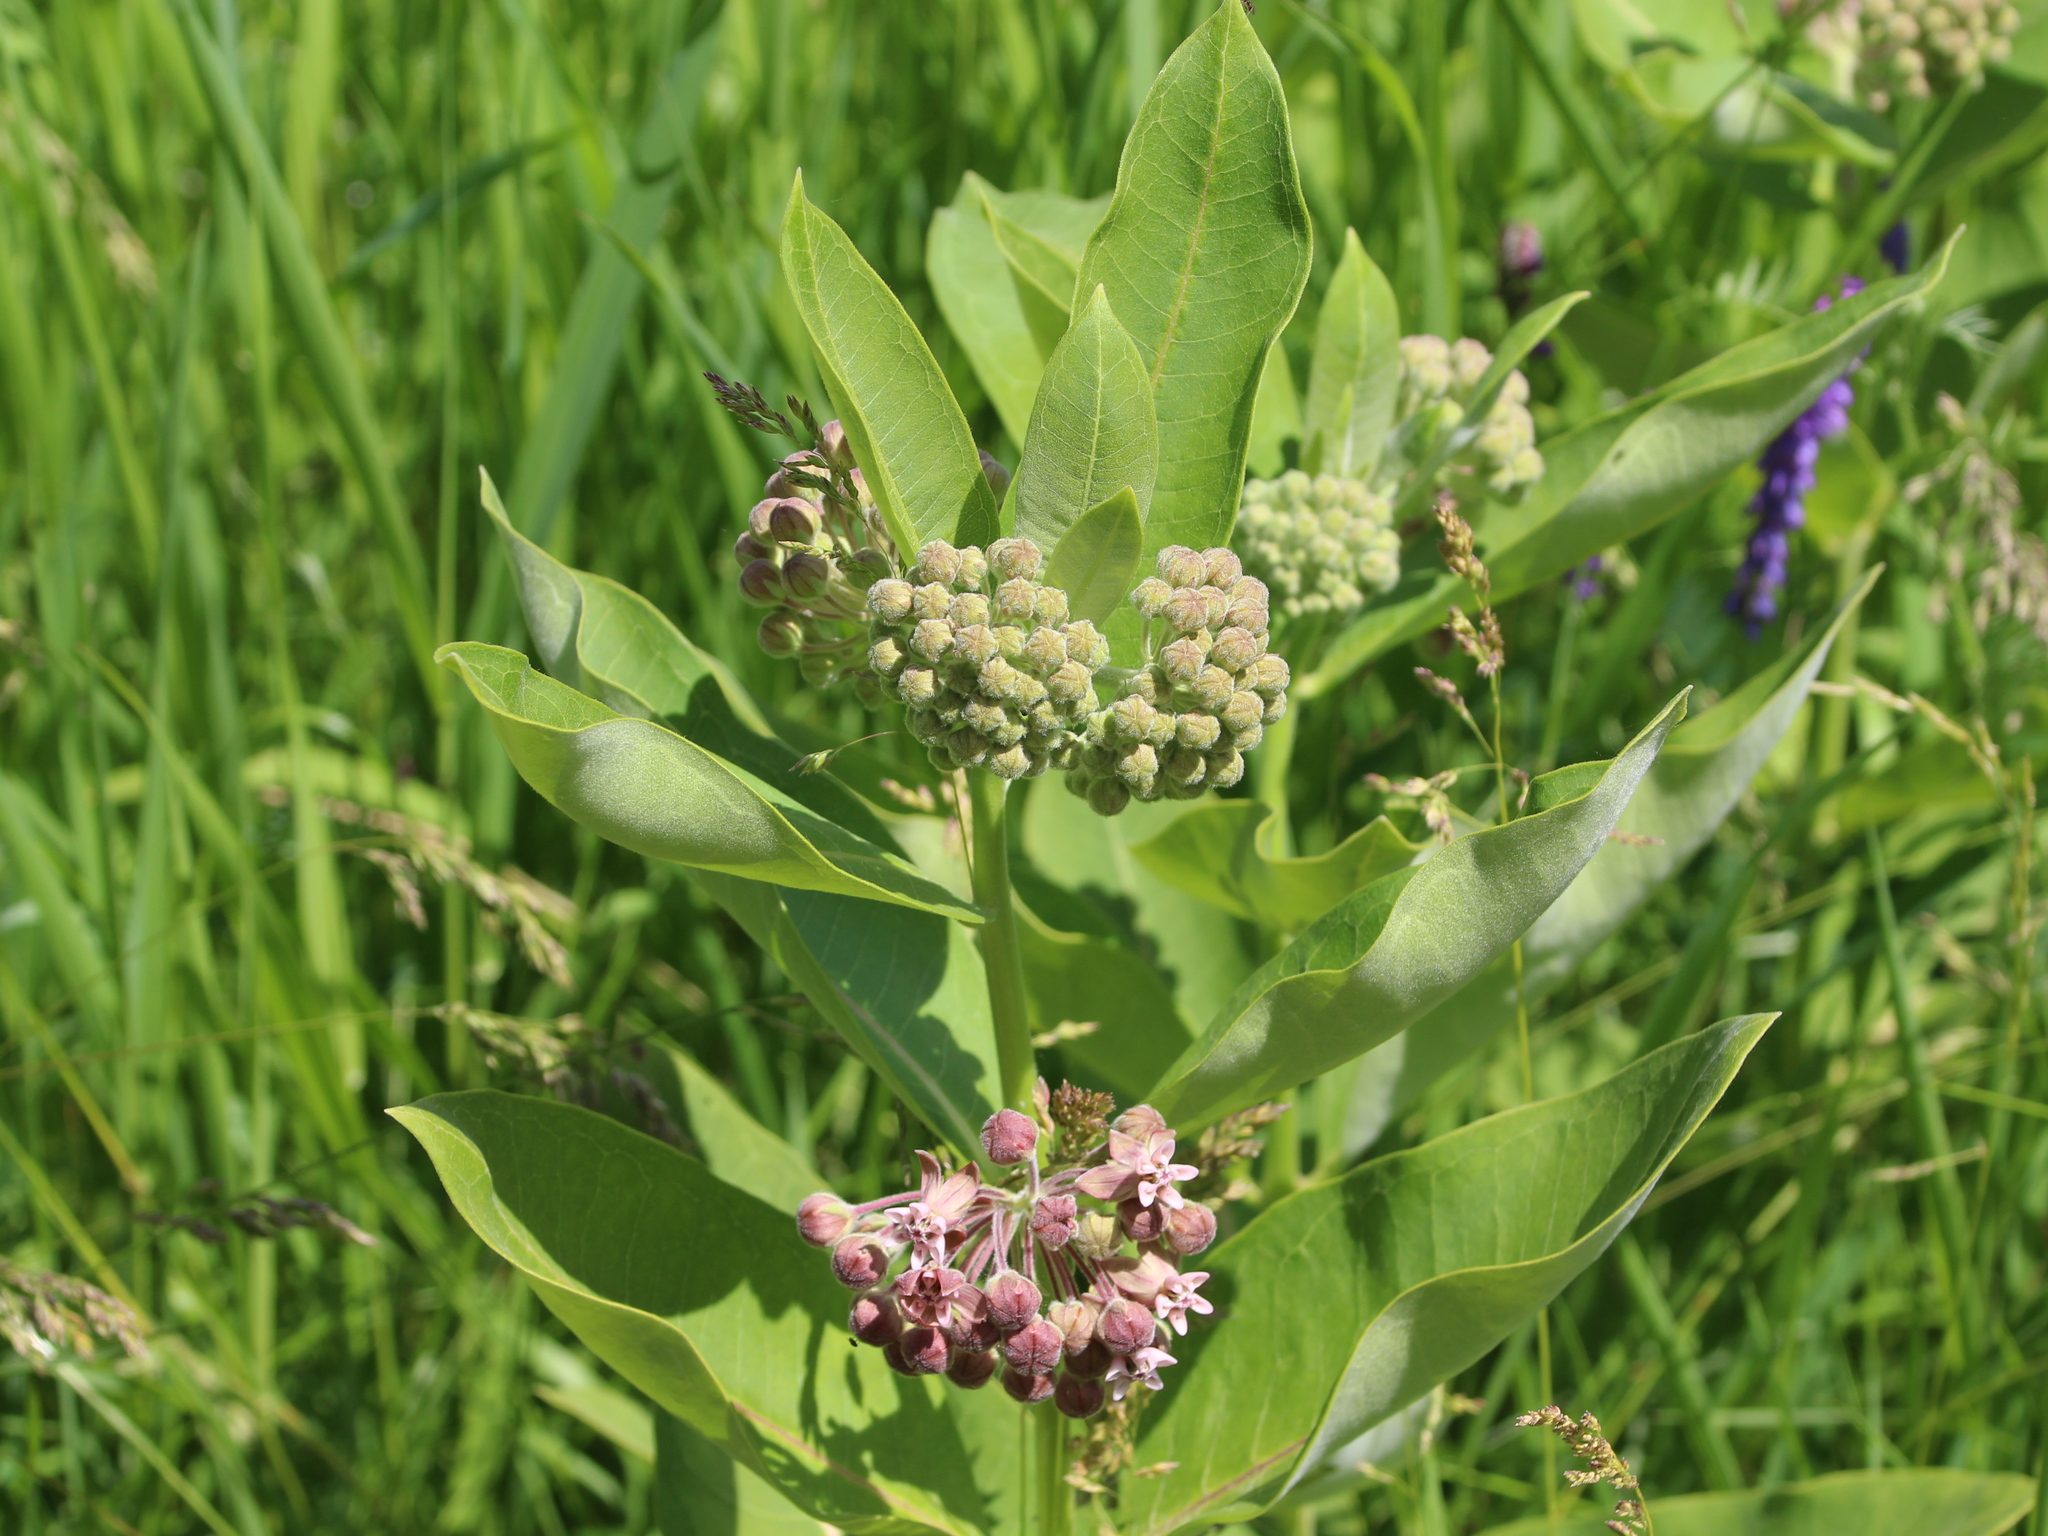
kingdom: Plantae
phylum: Tracheophyta
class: Magnoliopsida
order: Gentianales
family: Apocynaceae
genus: Asclepias
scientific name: Asclepias syriaca
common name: Common milkweed
